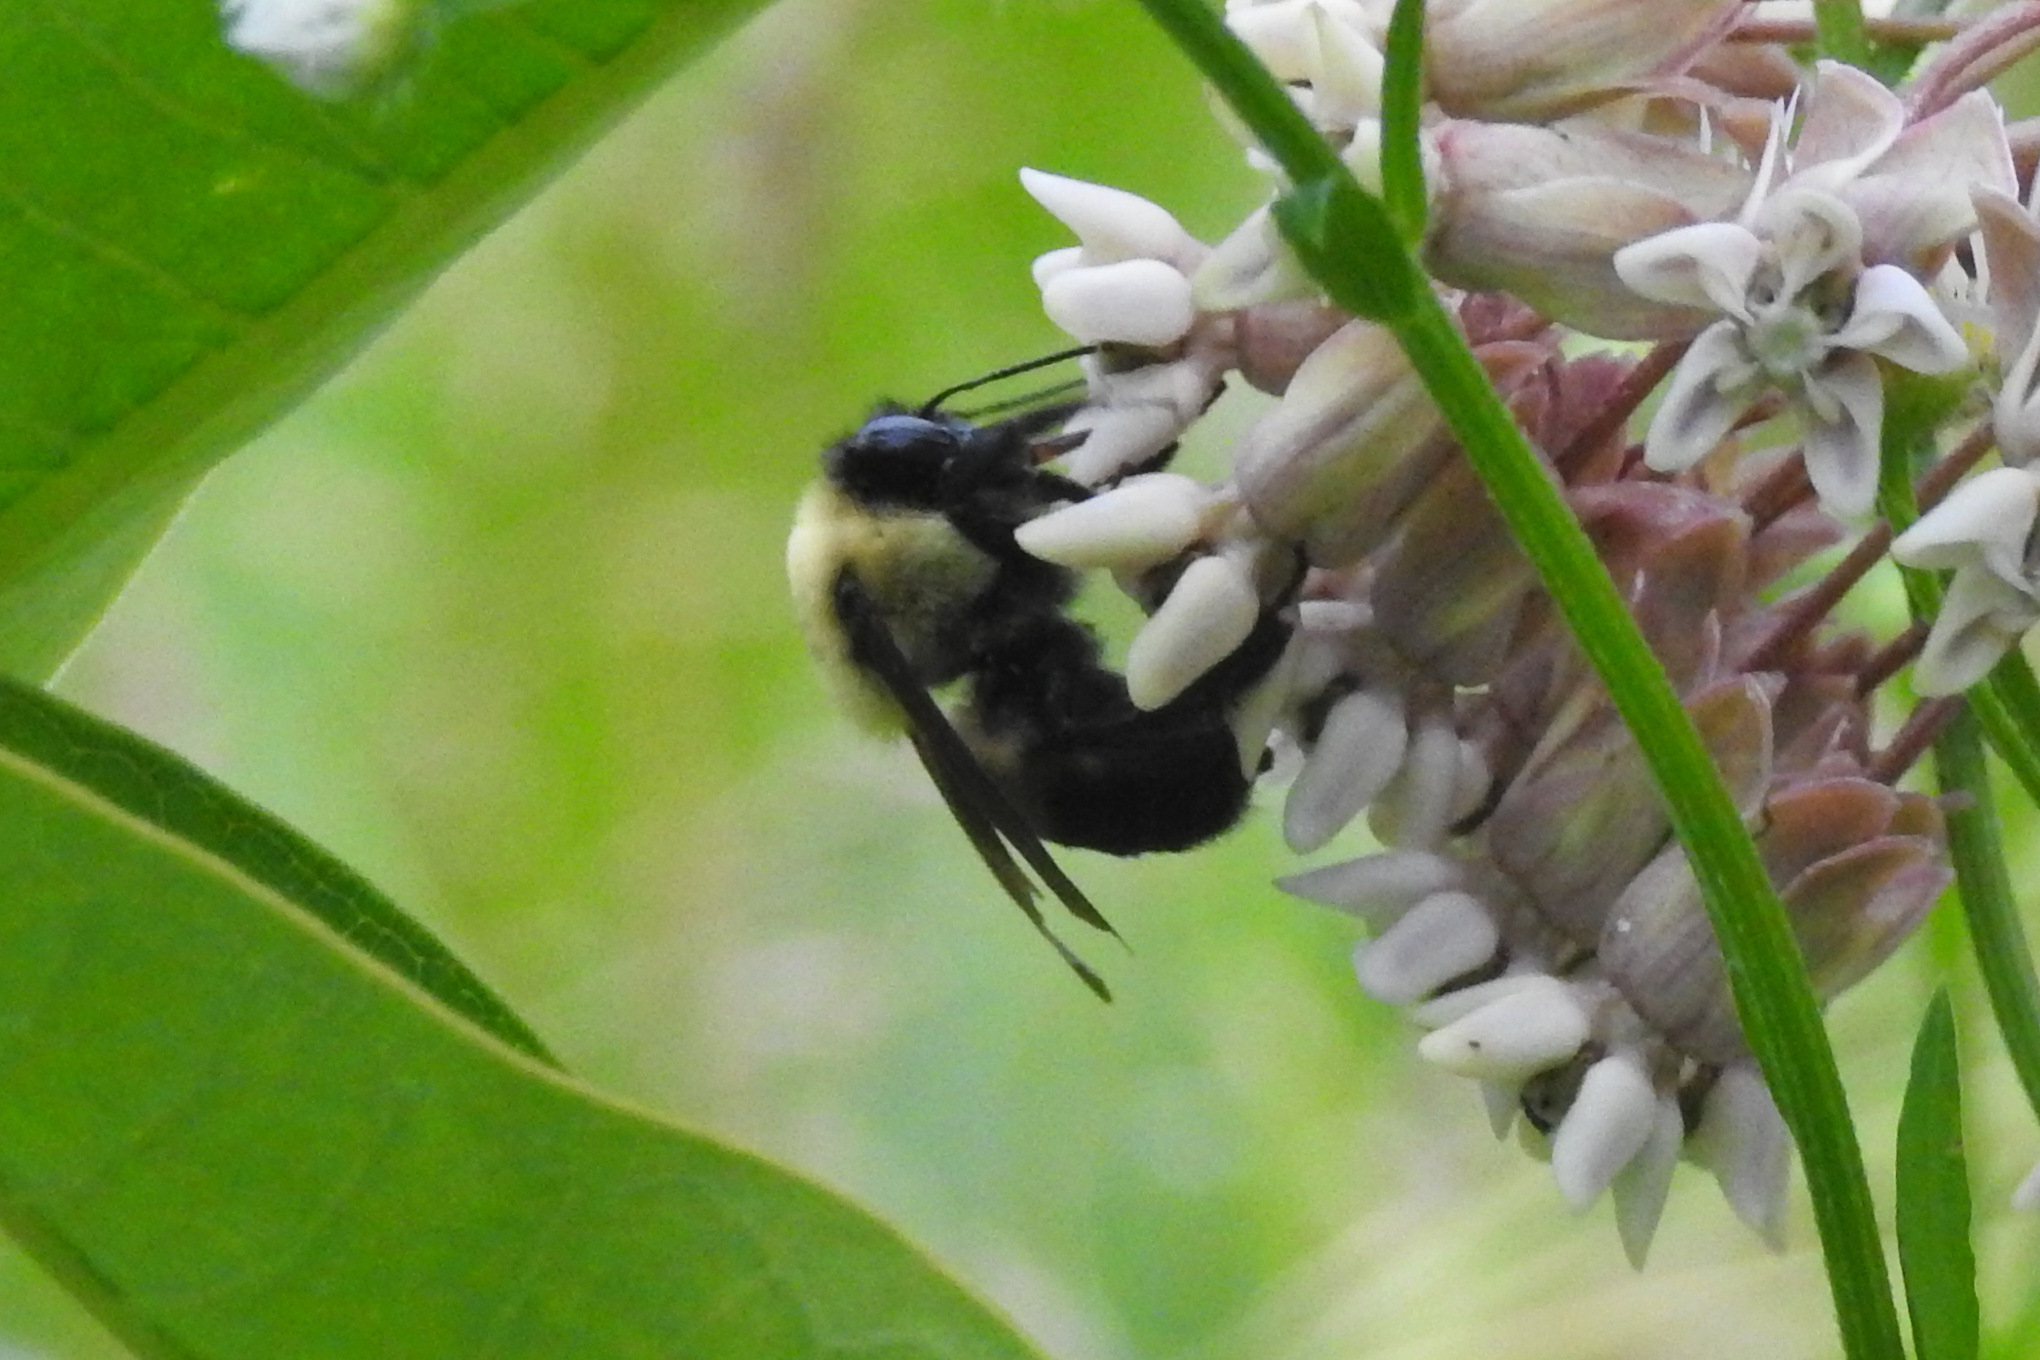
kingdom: Animalia
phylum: Arthropoda
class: Insecta
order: Hymenoptera
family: Apidae
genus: Bombus
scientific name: Bombus griseocollis
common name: Brown-belted bumble bee
